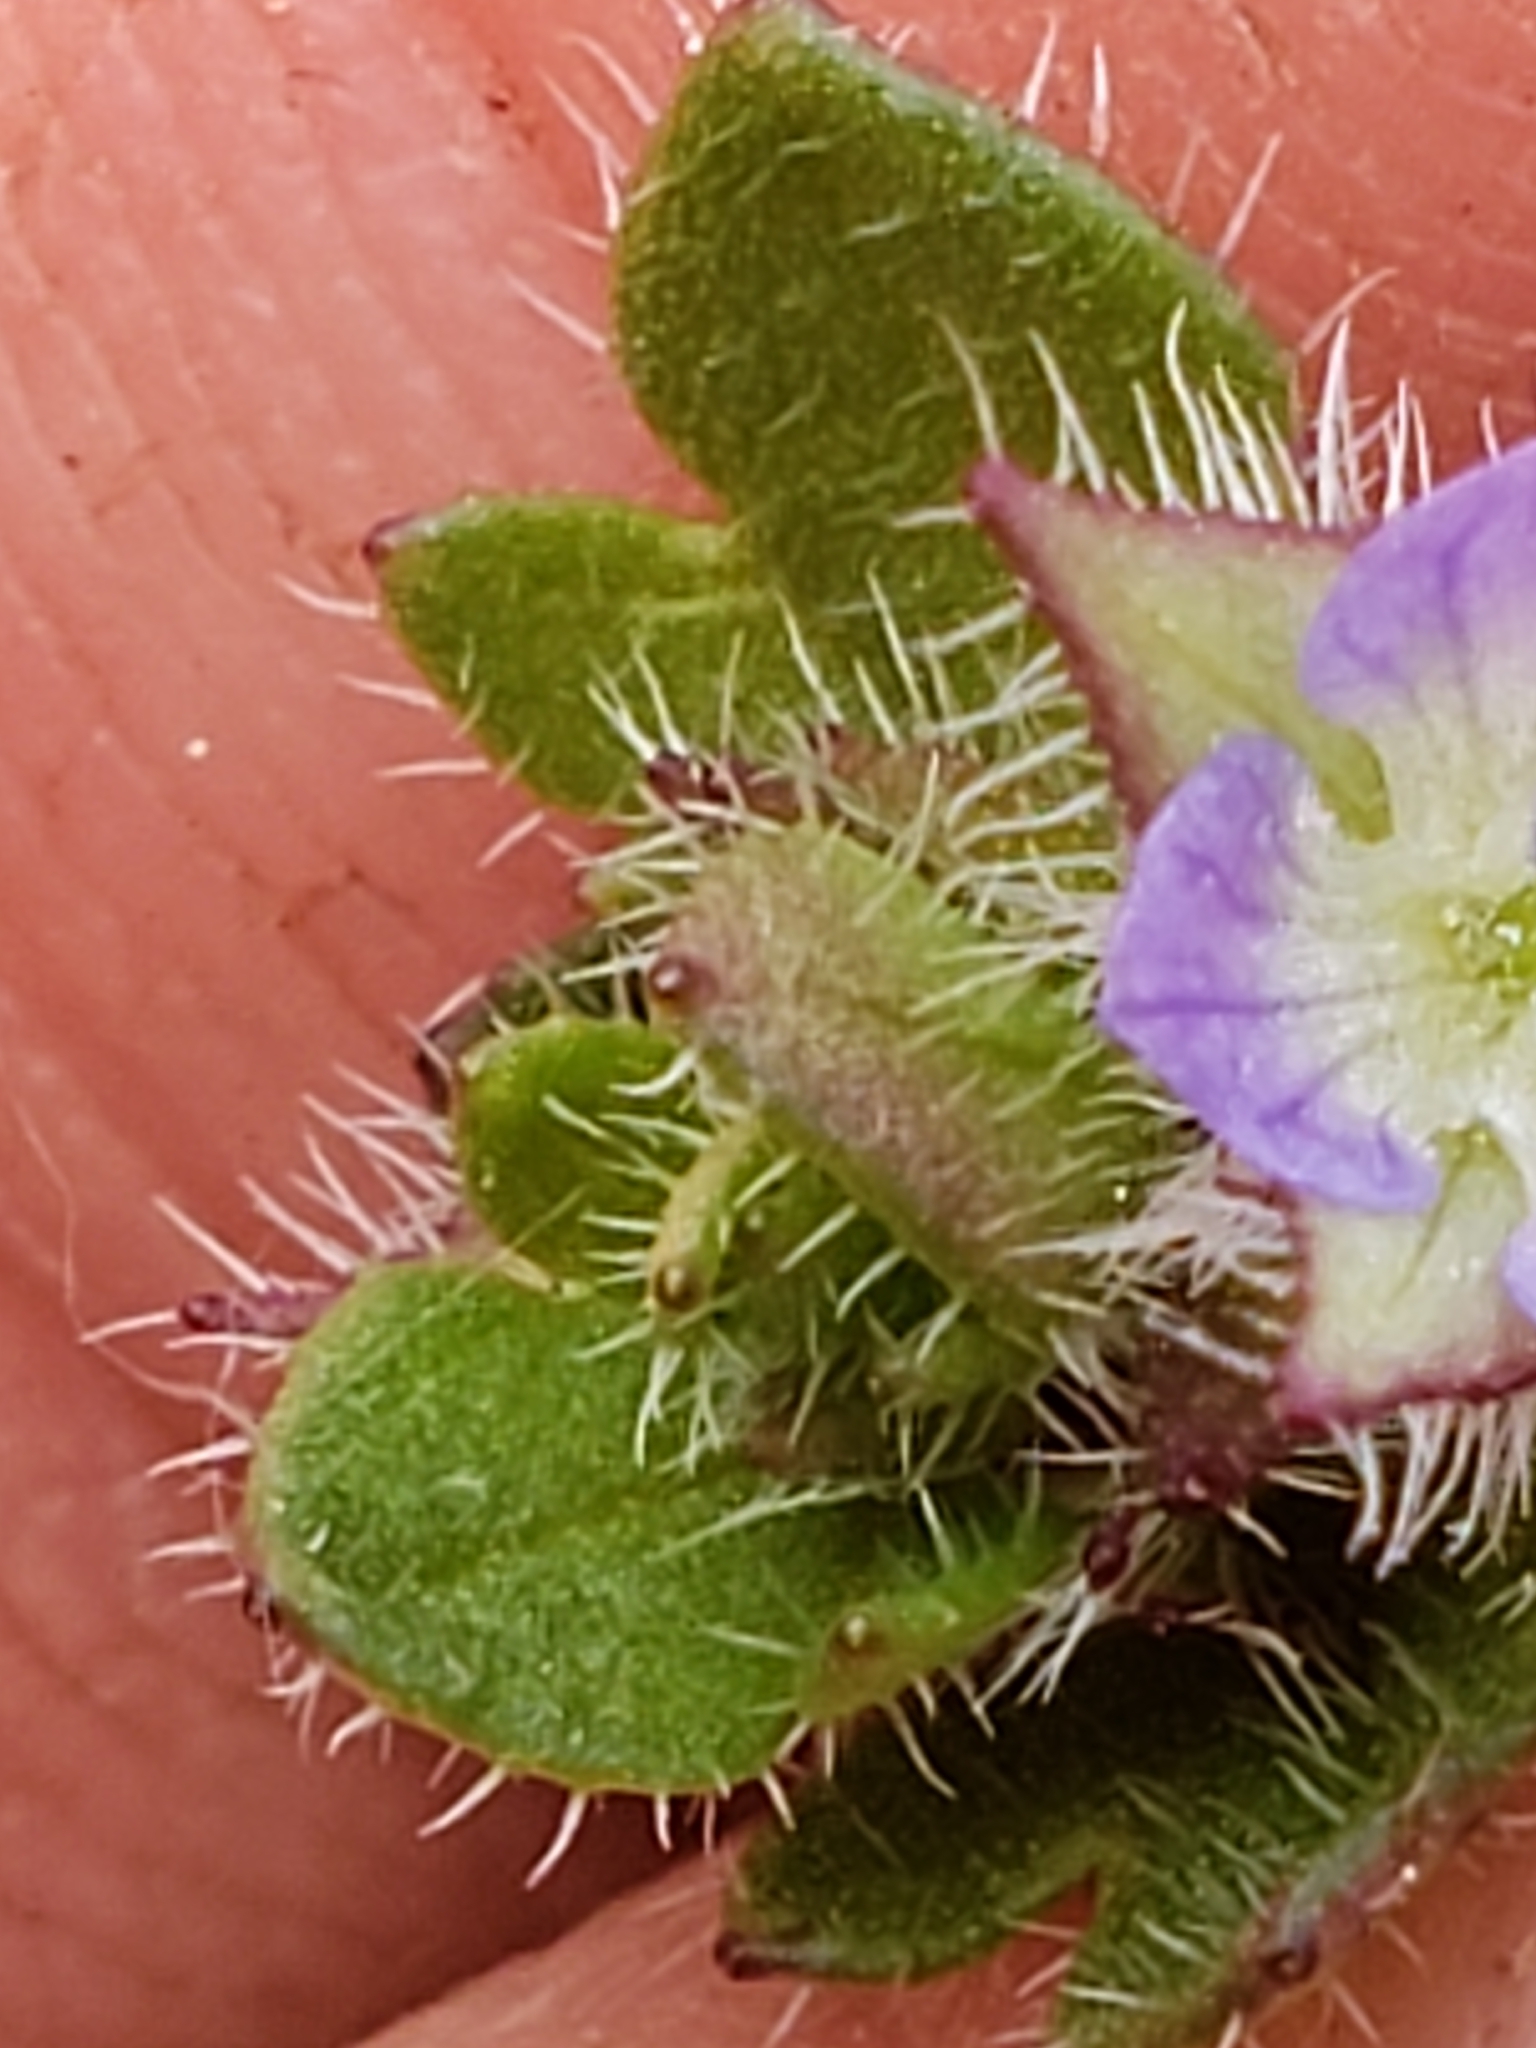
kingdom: Plantae
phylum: Tracheophyta
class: Magnoliopsida
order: Lamiales
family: Plantaginaceae
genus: Veronica
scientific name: Veronica hederifolia
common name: Ivy-leaved speedwell
